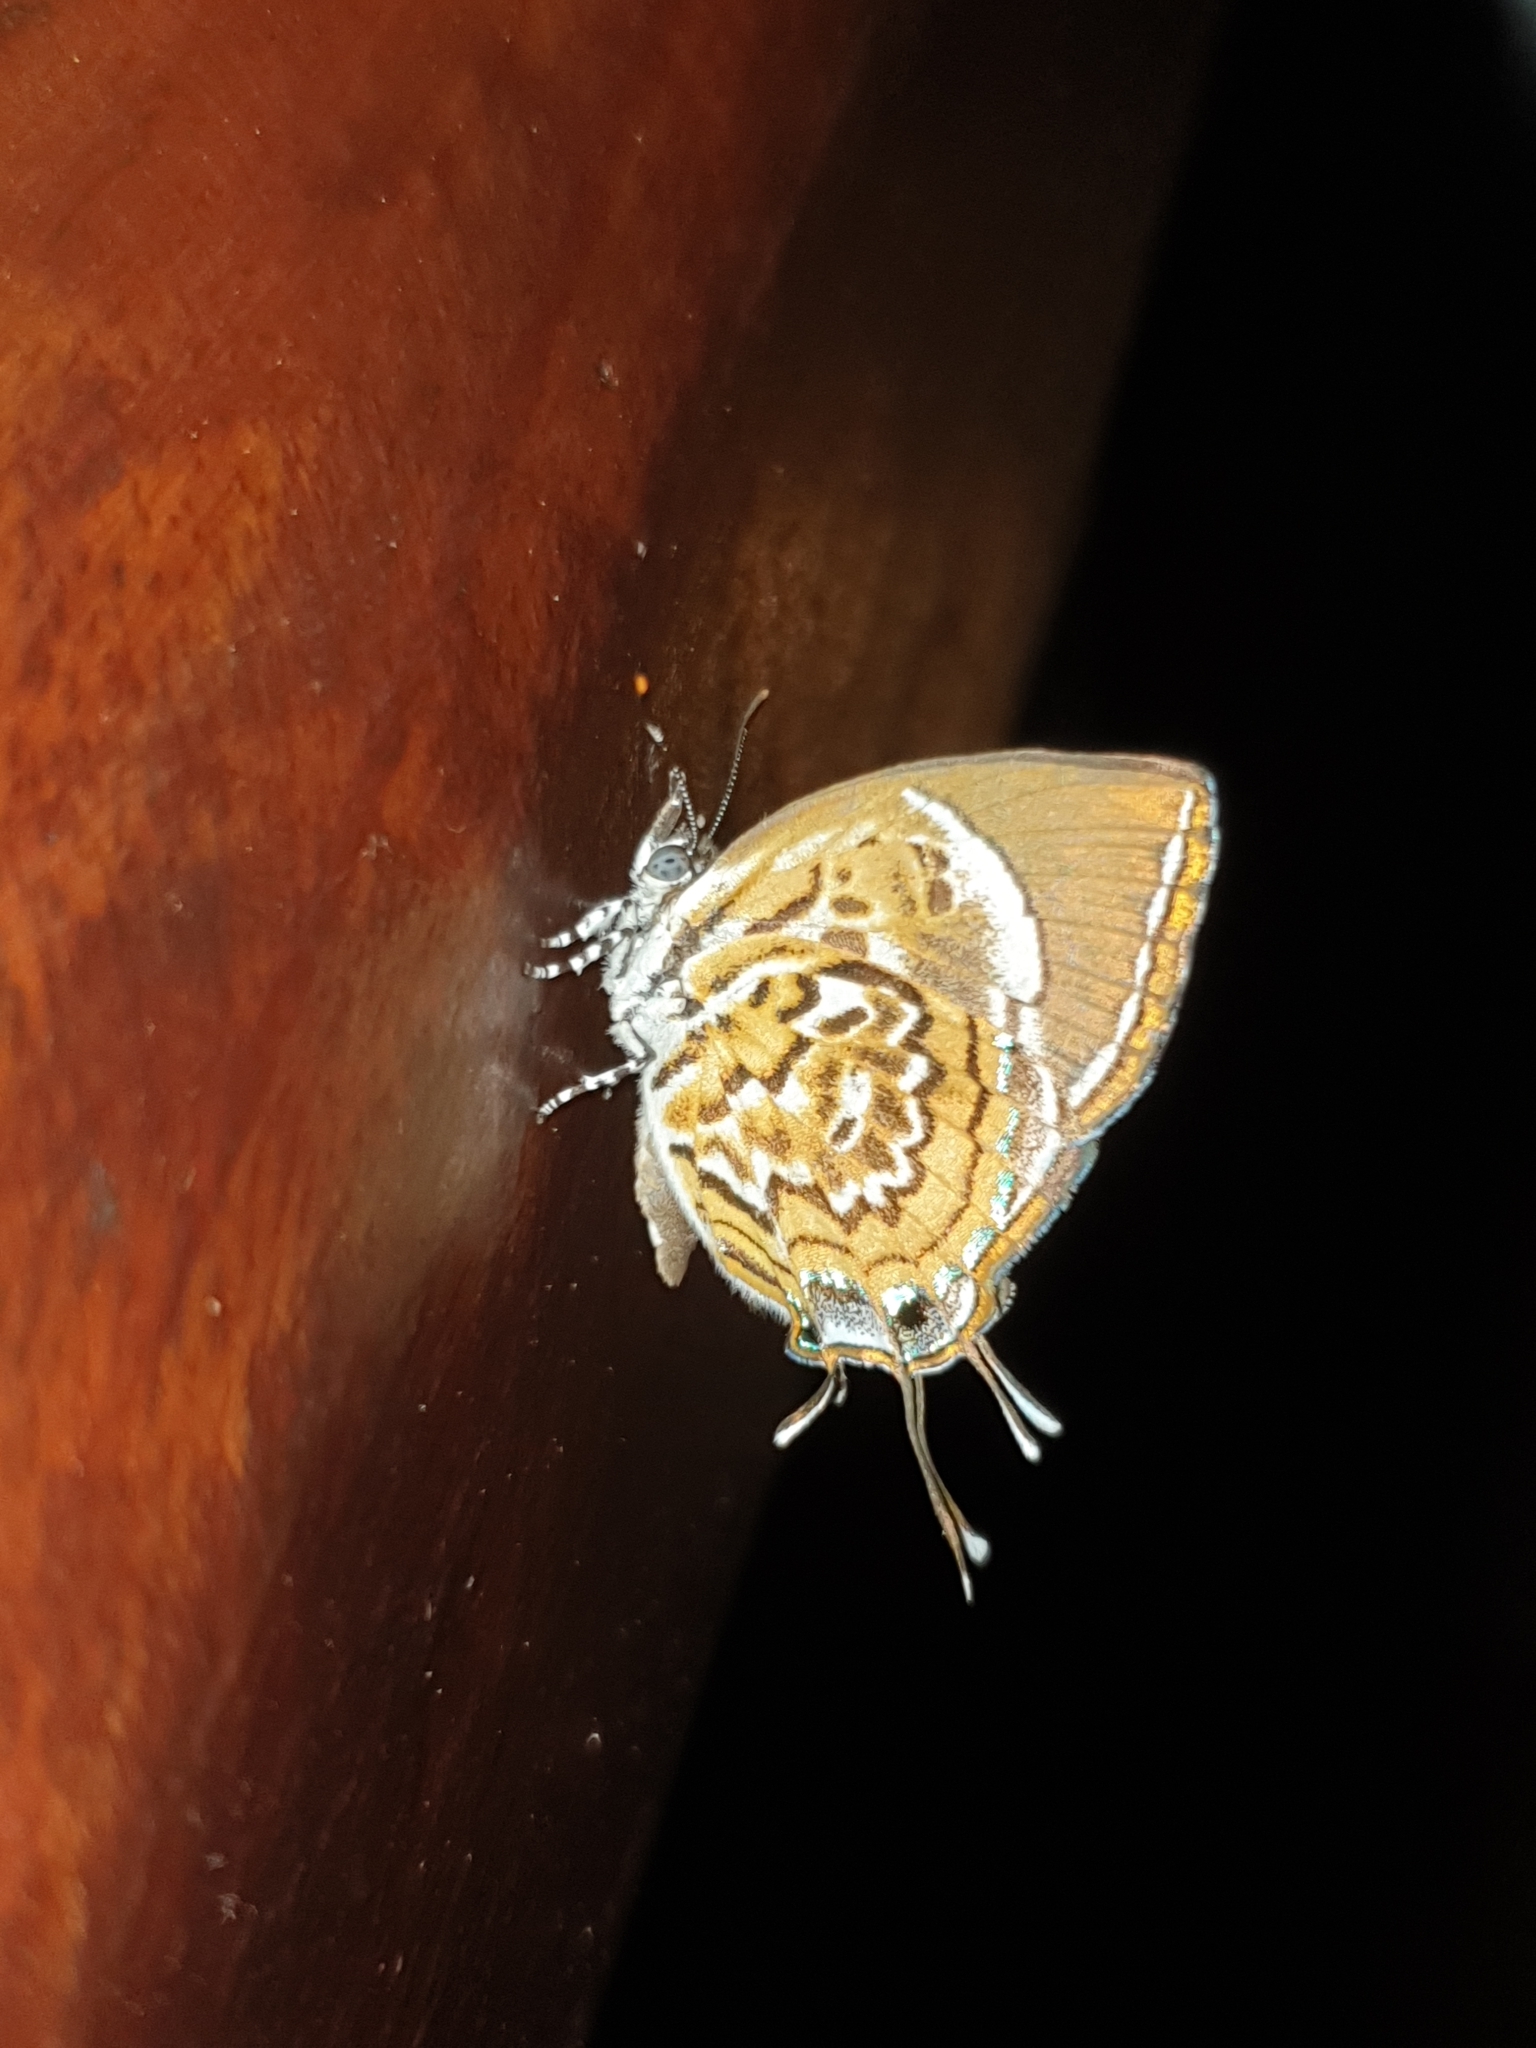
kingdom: Animalia
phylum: Arthropoda
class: Insecta
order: Lepidoptera
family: Lycaenidae
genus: Rathinda
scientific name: Rathinda amor
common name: Monkey puzzle
